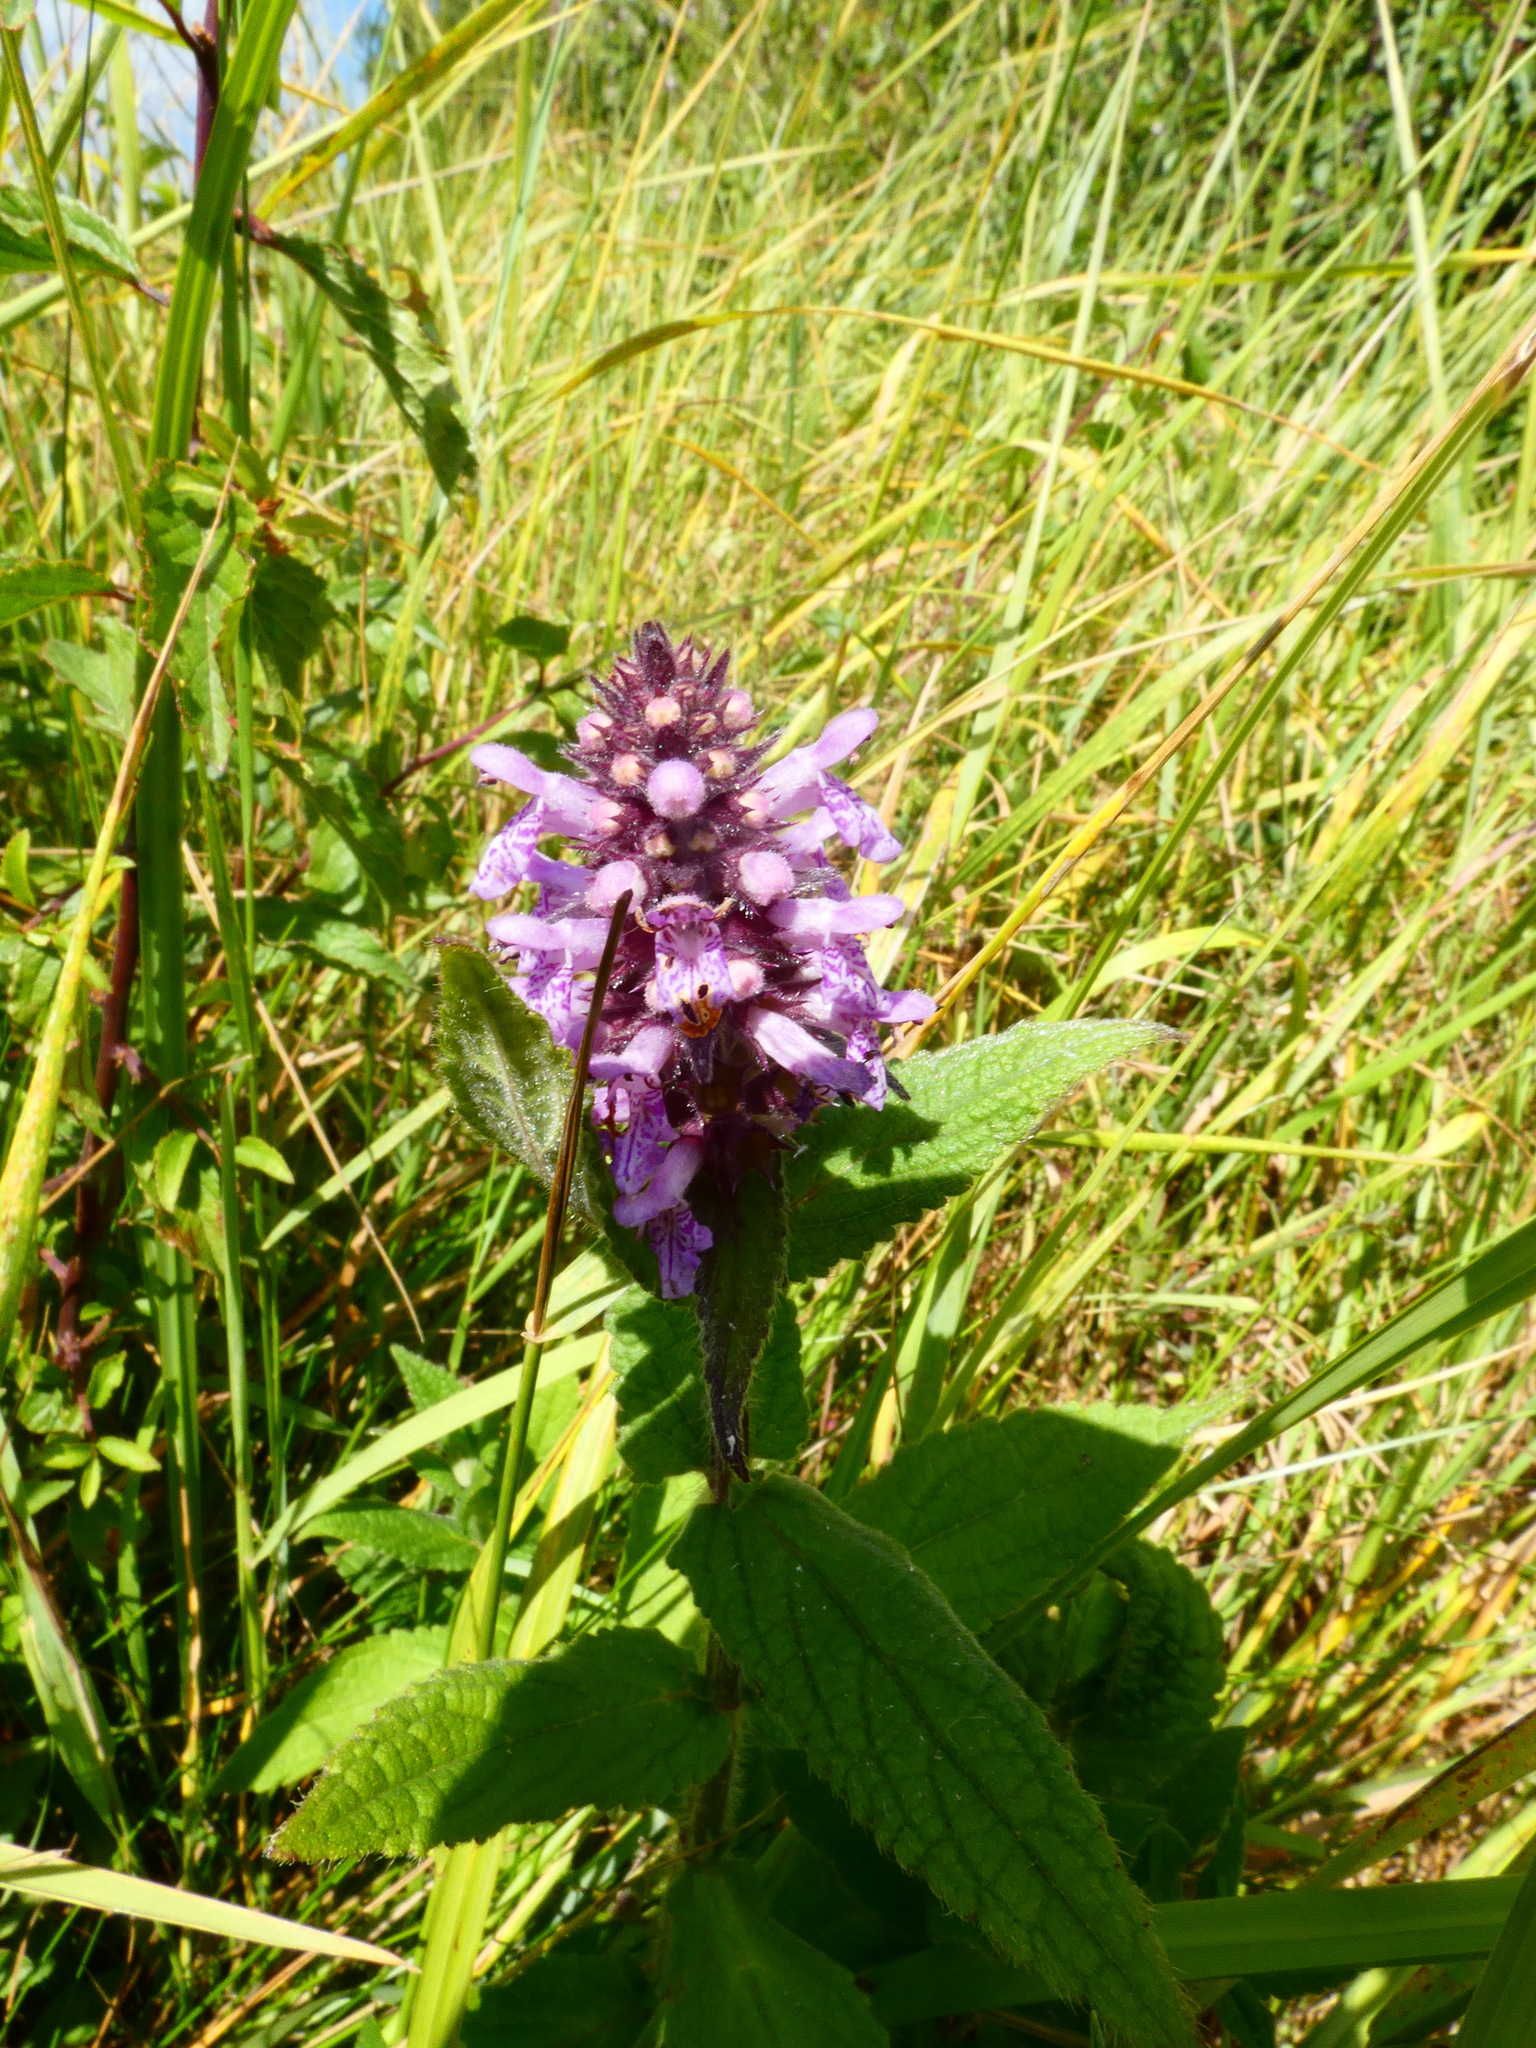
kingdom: Plantae
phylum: Tracheophyta
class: Magnoliopsida
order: Lamiales
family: Lamiaceae
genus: Stachys
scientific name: Stachys palustris
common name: Marsh woundwort
